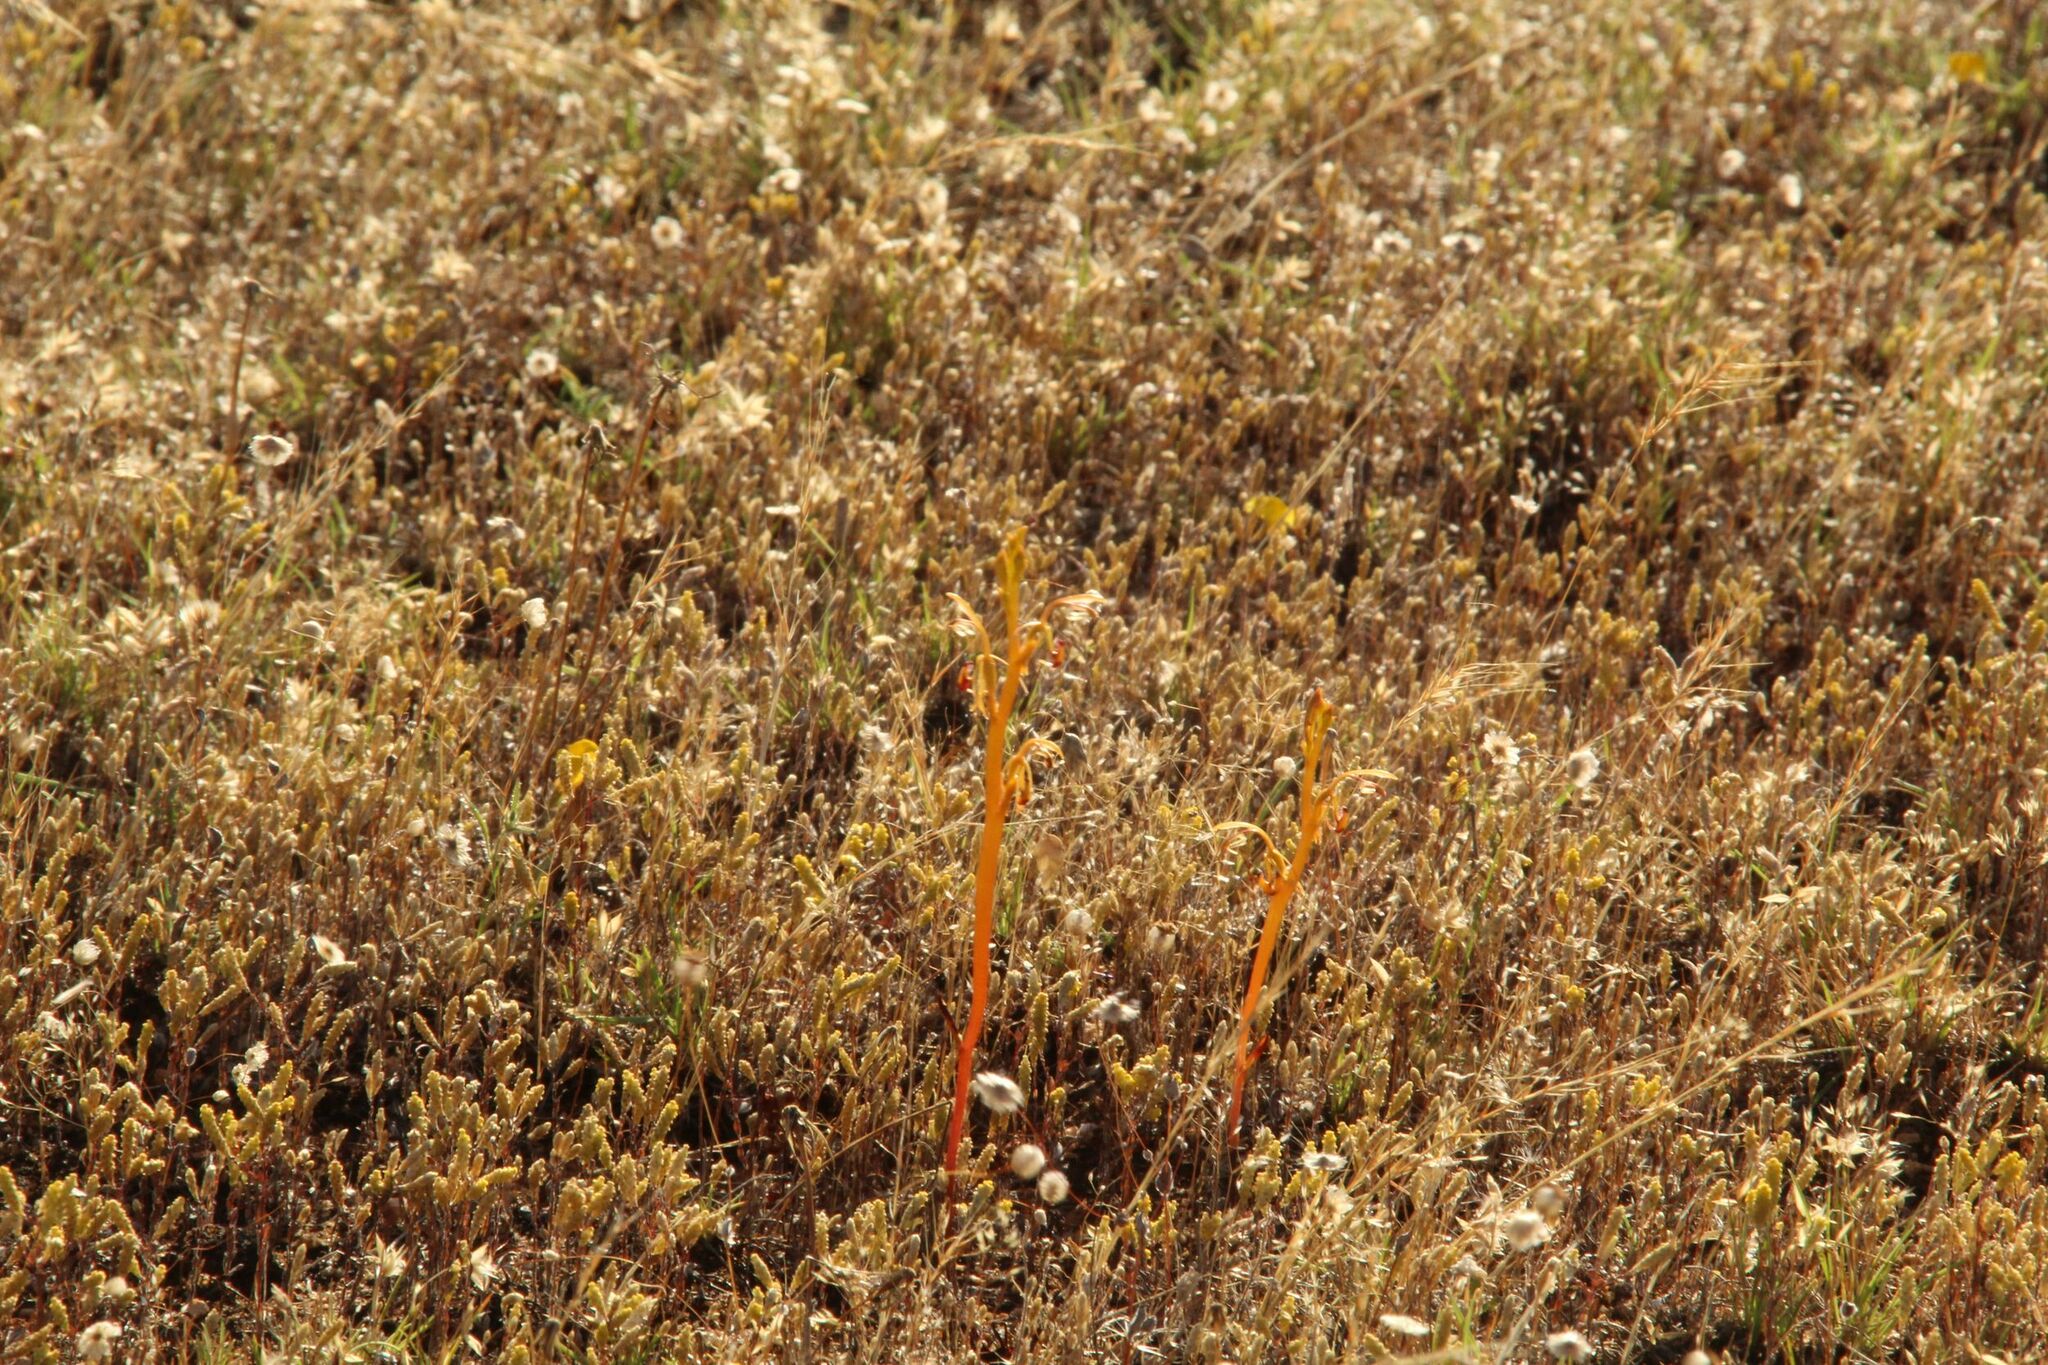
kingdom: Plantae
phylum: Tracheophyta
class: Liliopsida
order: Asparagales
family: Orchidaceae
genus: Spiculaea
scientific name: Spiculaea ciliata
